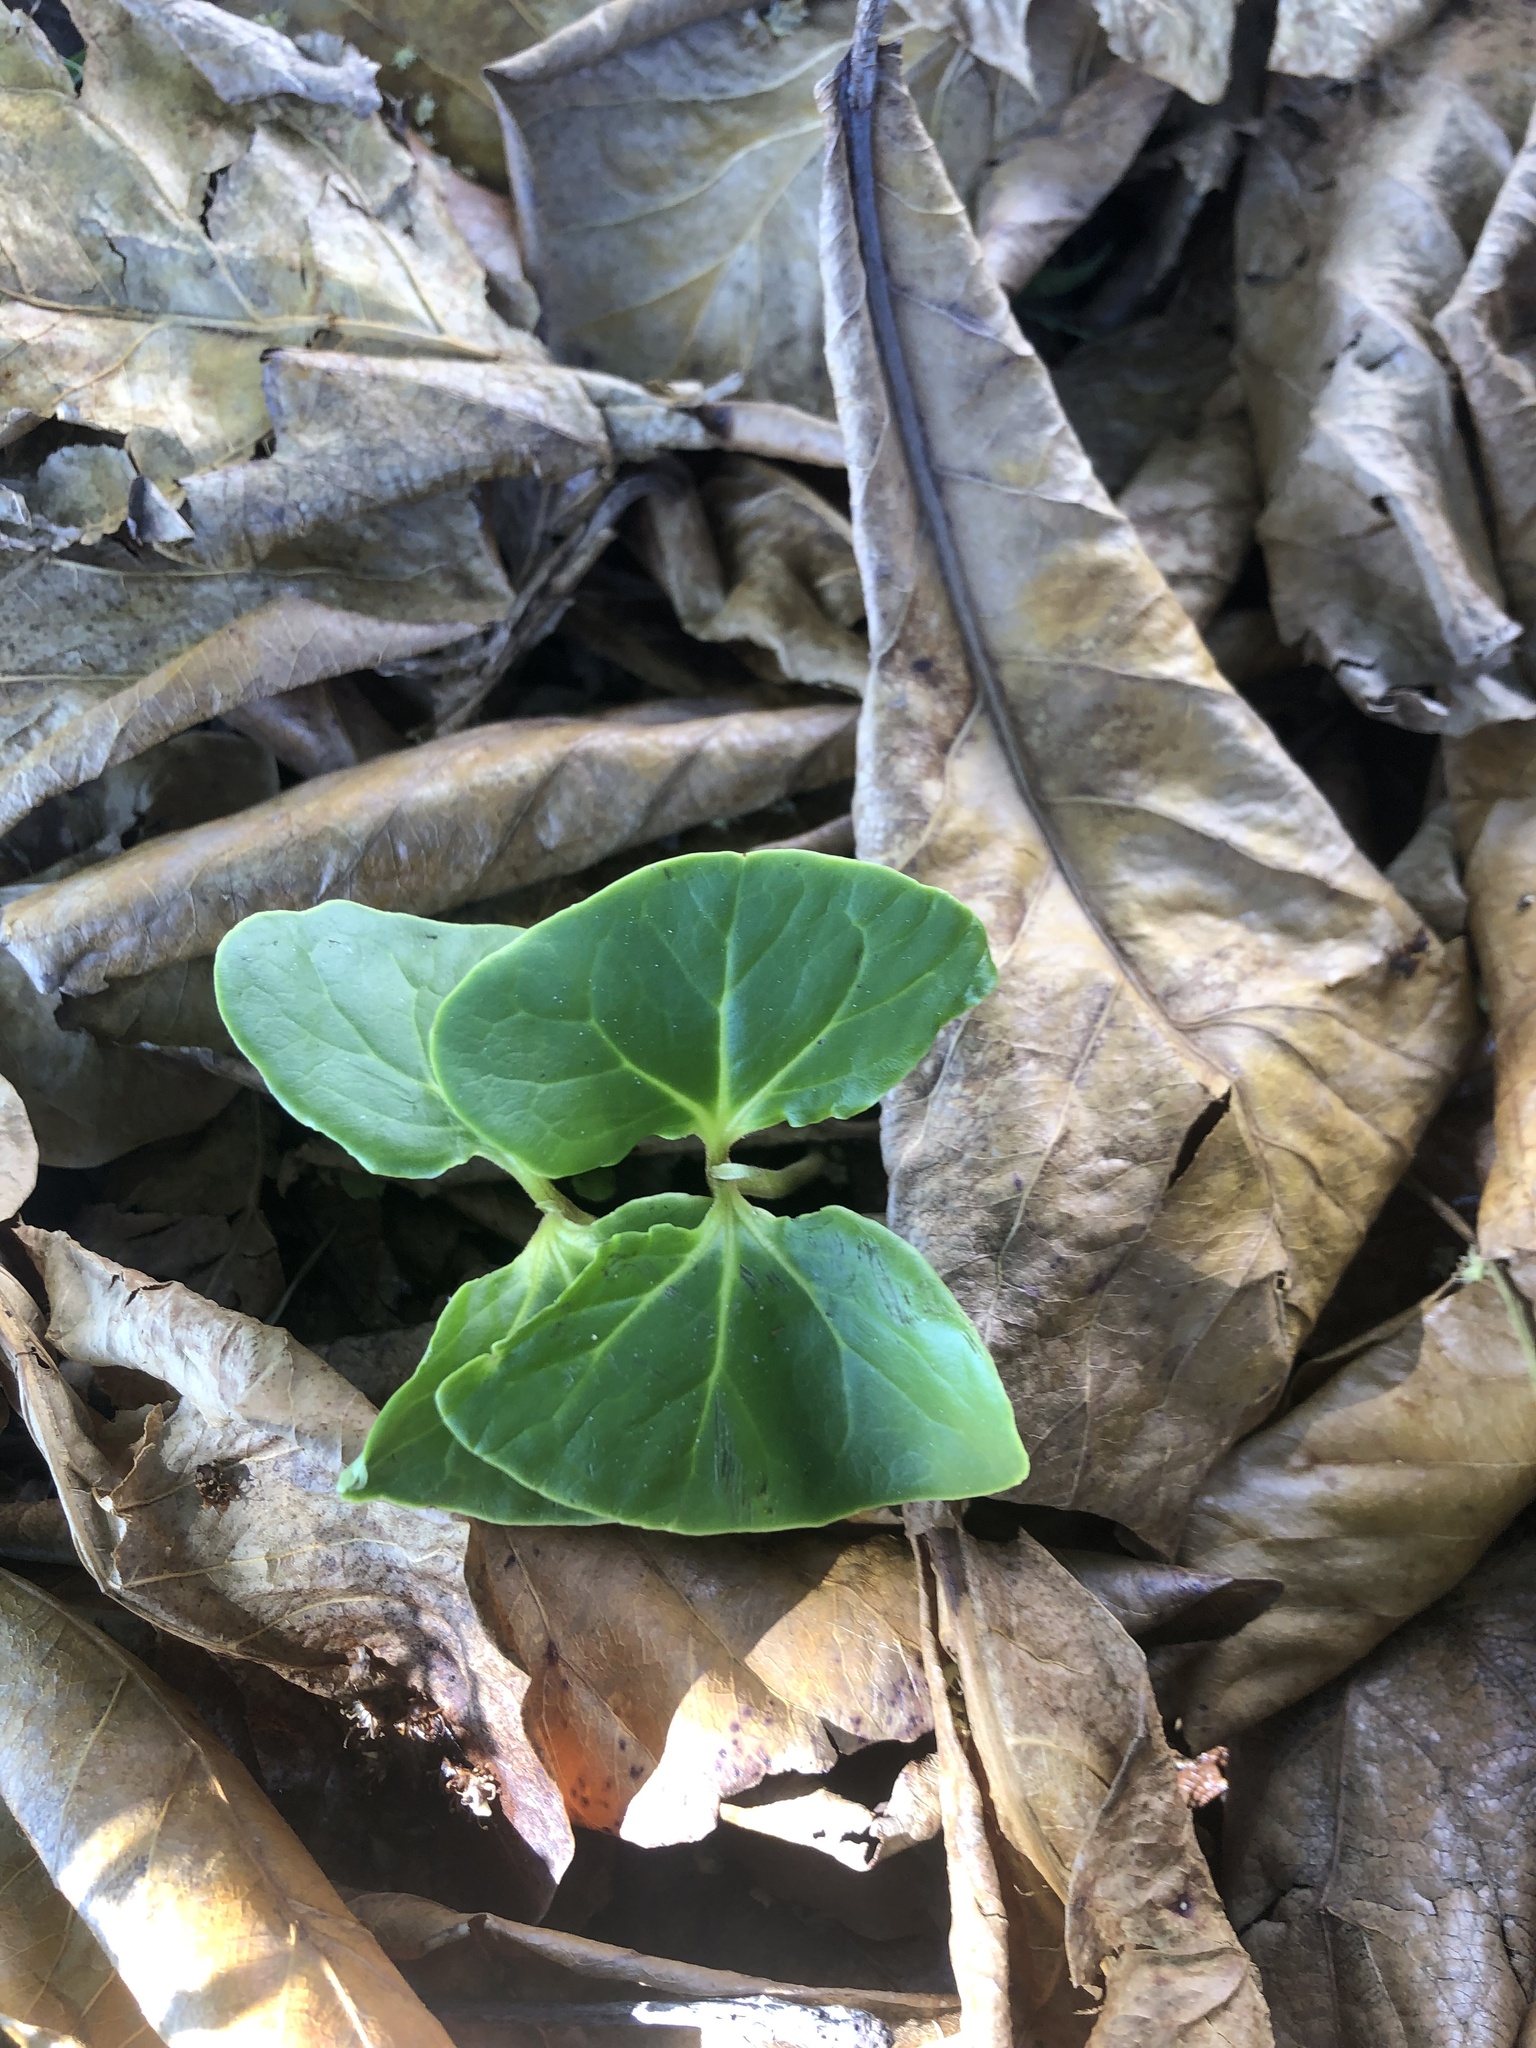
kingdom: Plantae
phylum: Tracheophyta
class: Magnoliopsida
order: Myrtales
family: Combretaceae
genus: Terminalia
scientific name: Terminalia catappa
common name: Tropical almond
